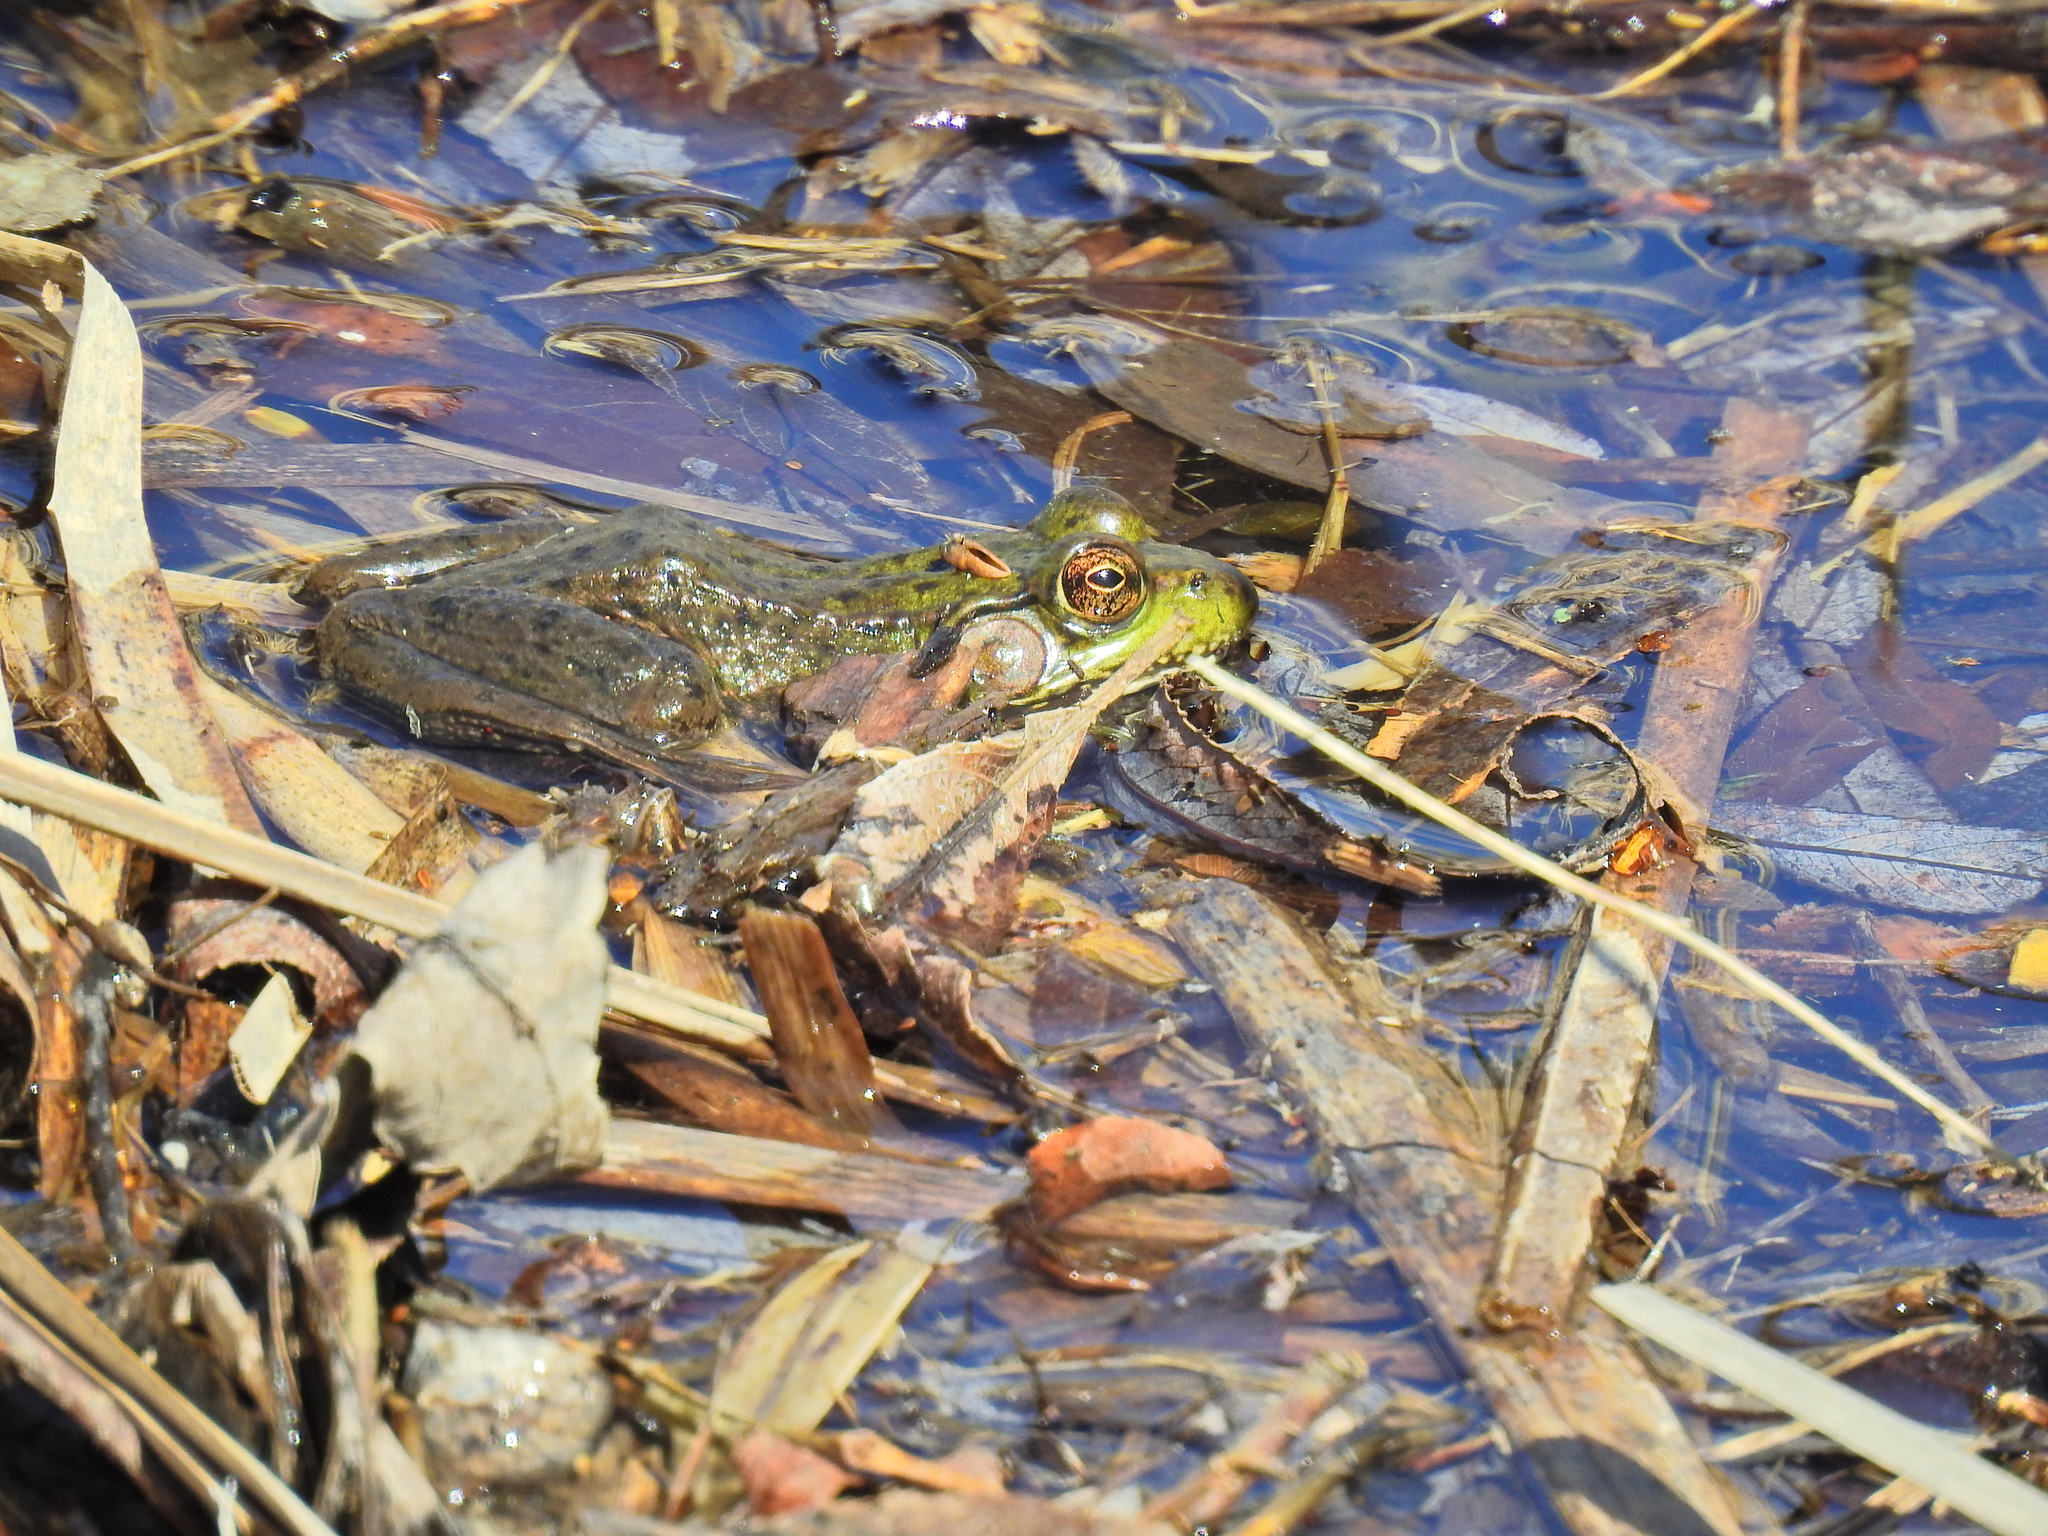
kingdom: Animalia
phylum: Chordata
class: Amphibia
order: Anura
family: Ranidae
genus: Lithobates
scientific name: Lithobates clamitans
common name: Green frog
